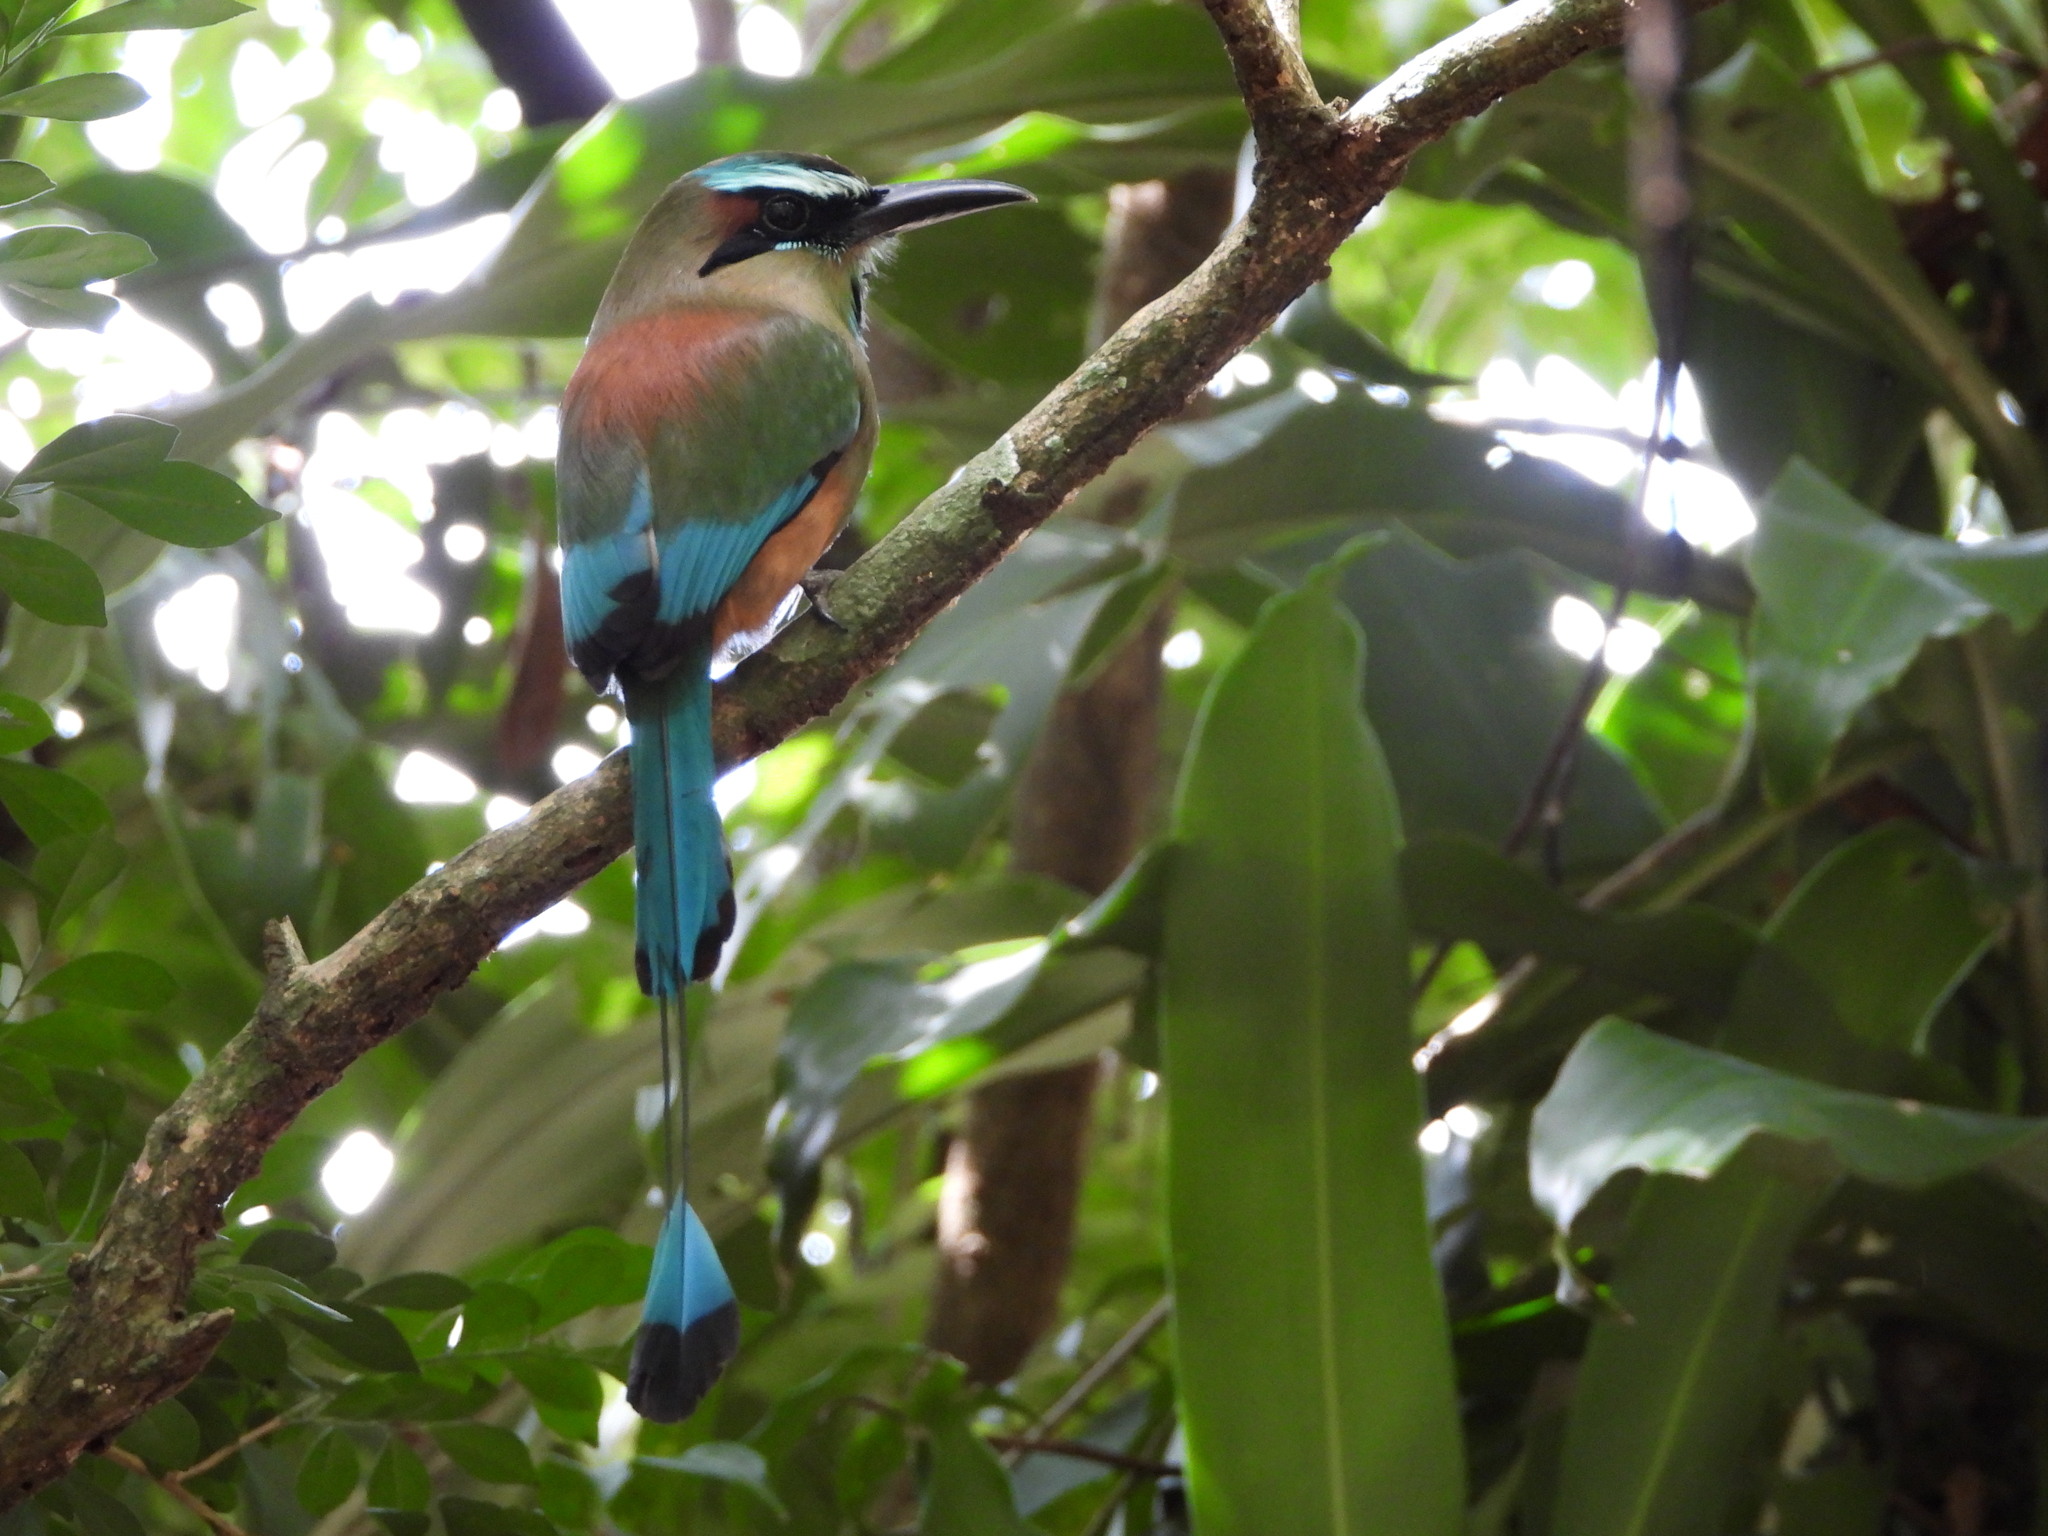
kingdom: Animalia
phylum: Chordata
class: Aves
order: Coraciiformes
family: Momotidae
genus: Eumomota
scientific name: Eumomota superciliosa
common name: Turquoise-browed motmot
